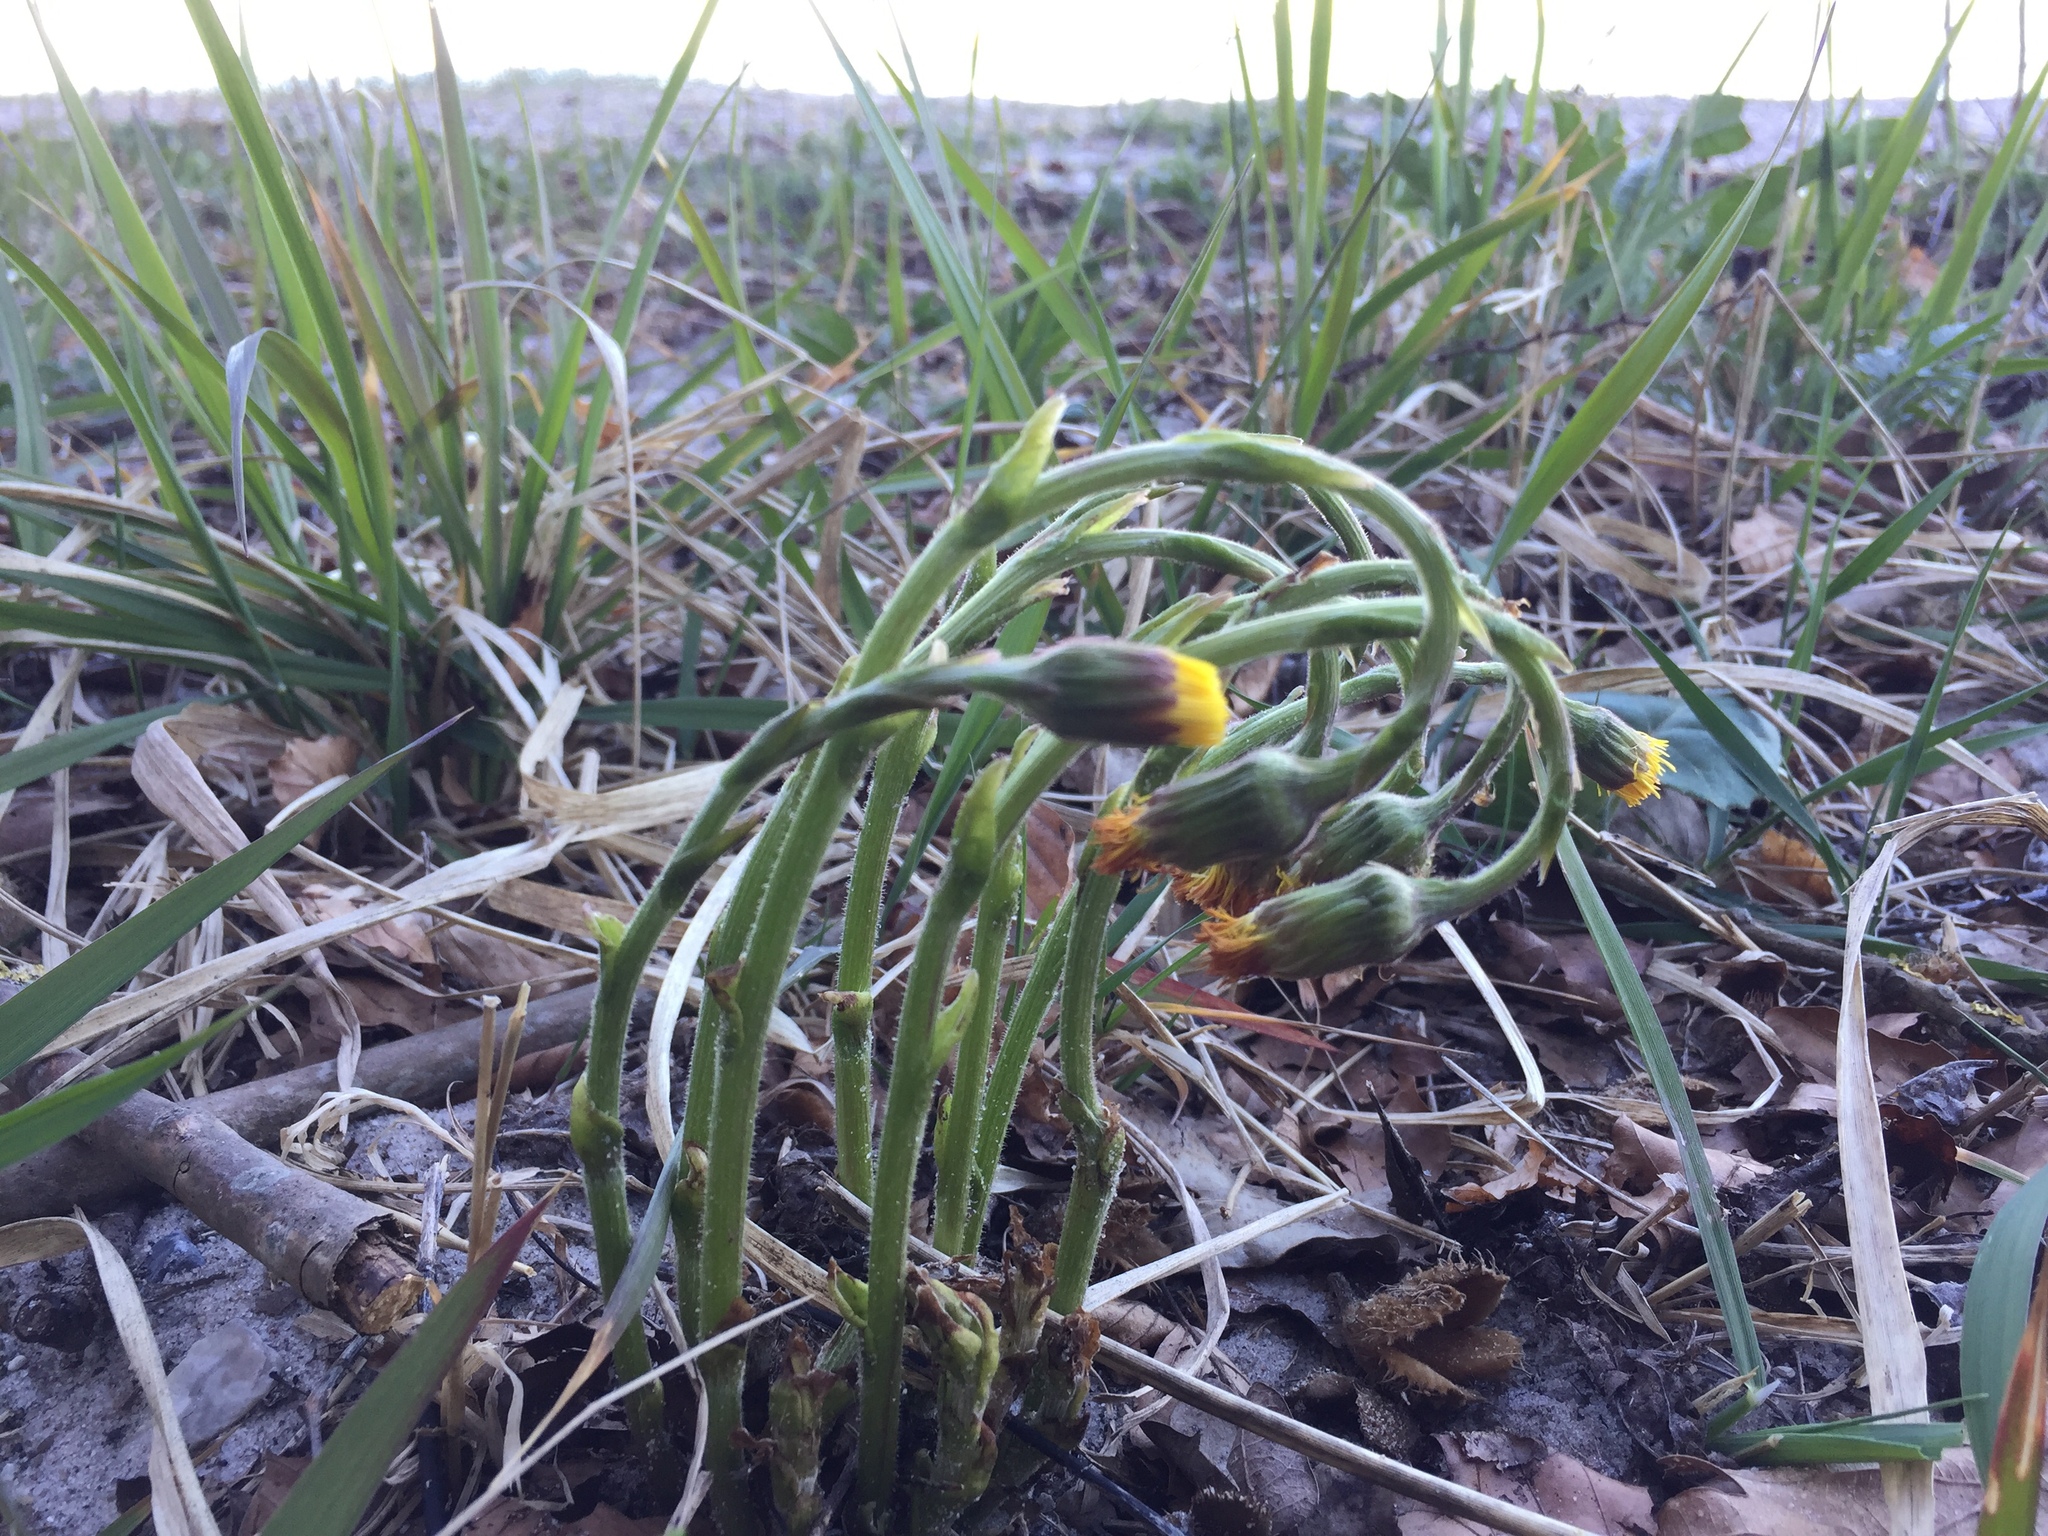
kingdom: Plantae
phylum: Tracheophyta
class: Magnoliopsida
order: Asterales
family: Asteraceae
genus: Tussilago
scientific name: Tussilago farfara
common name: Coltsfoot
